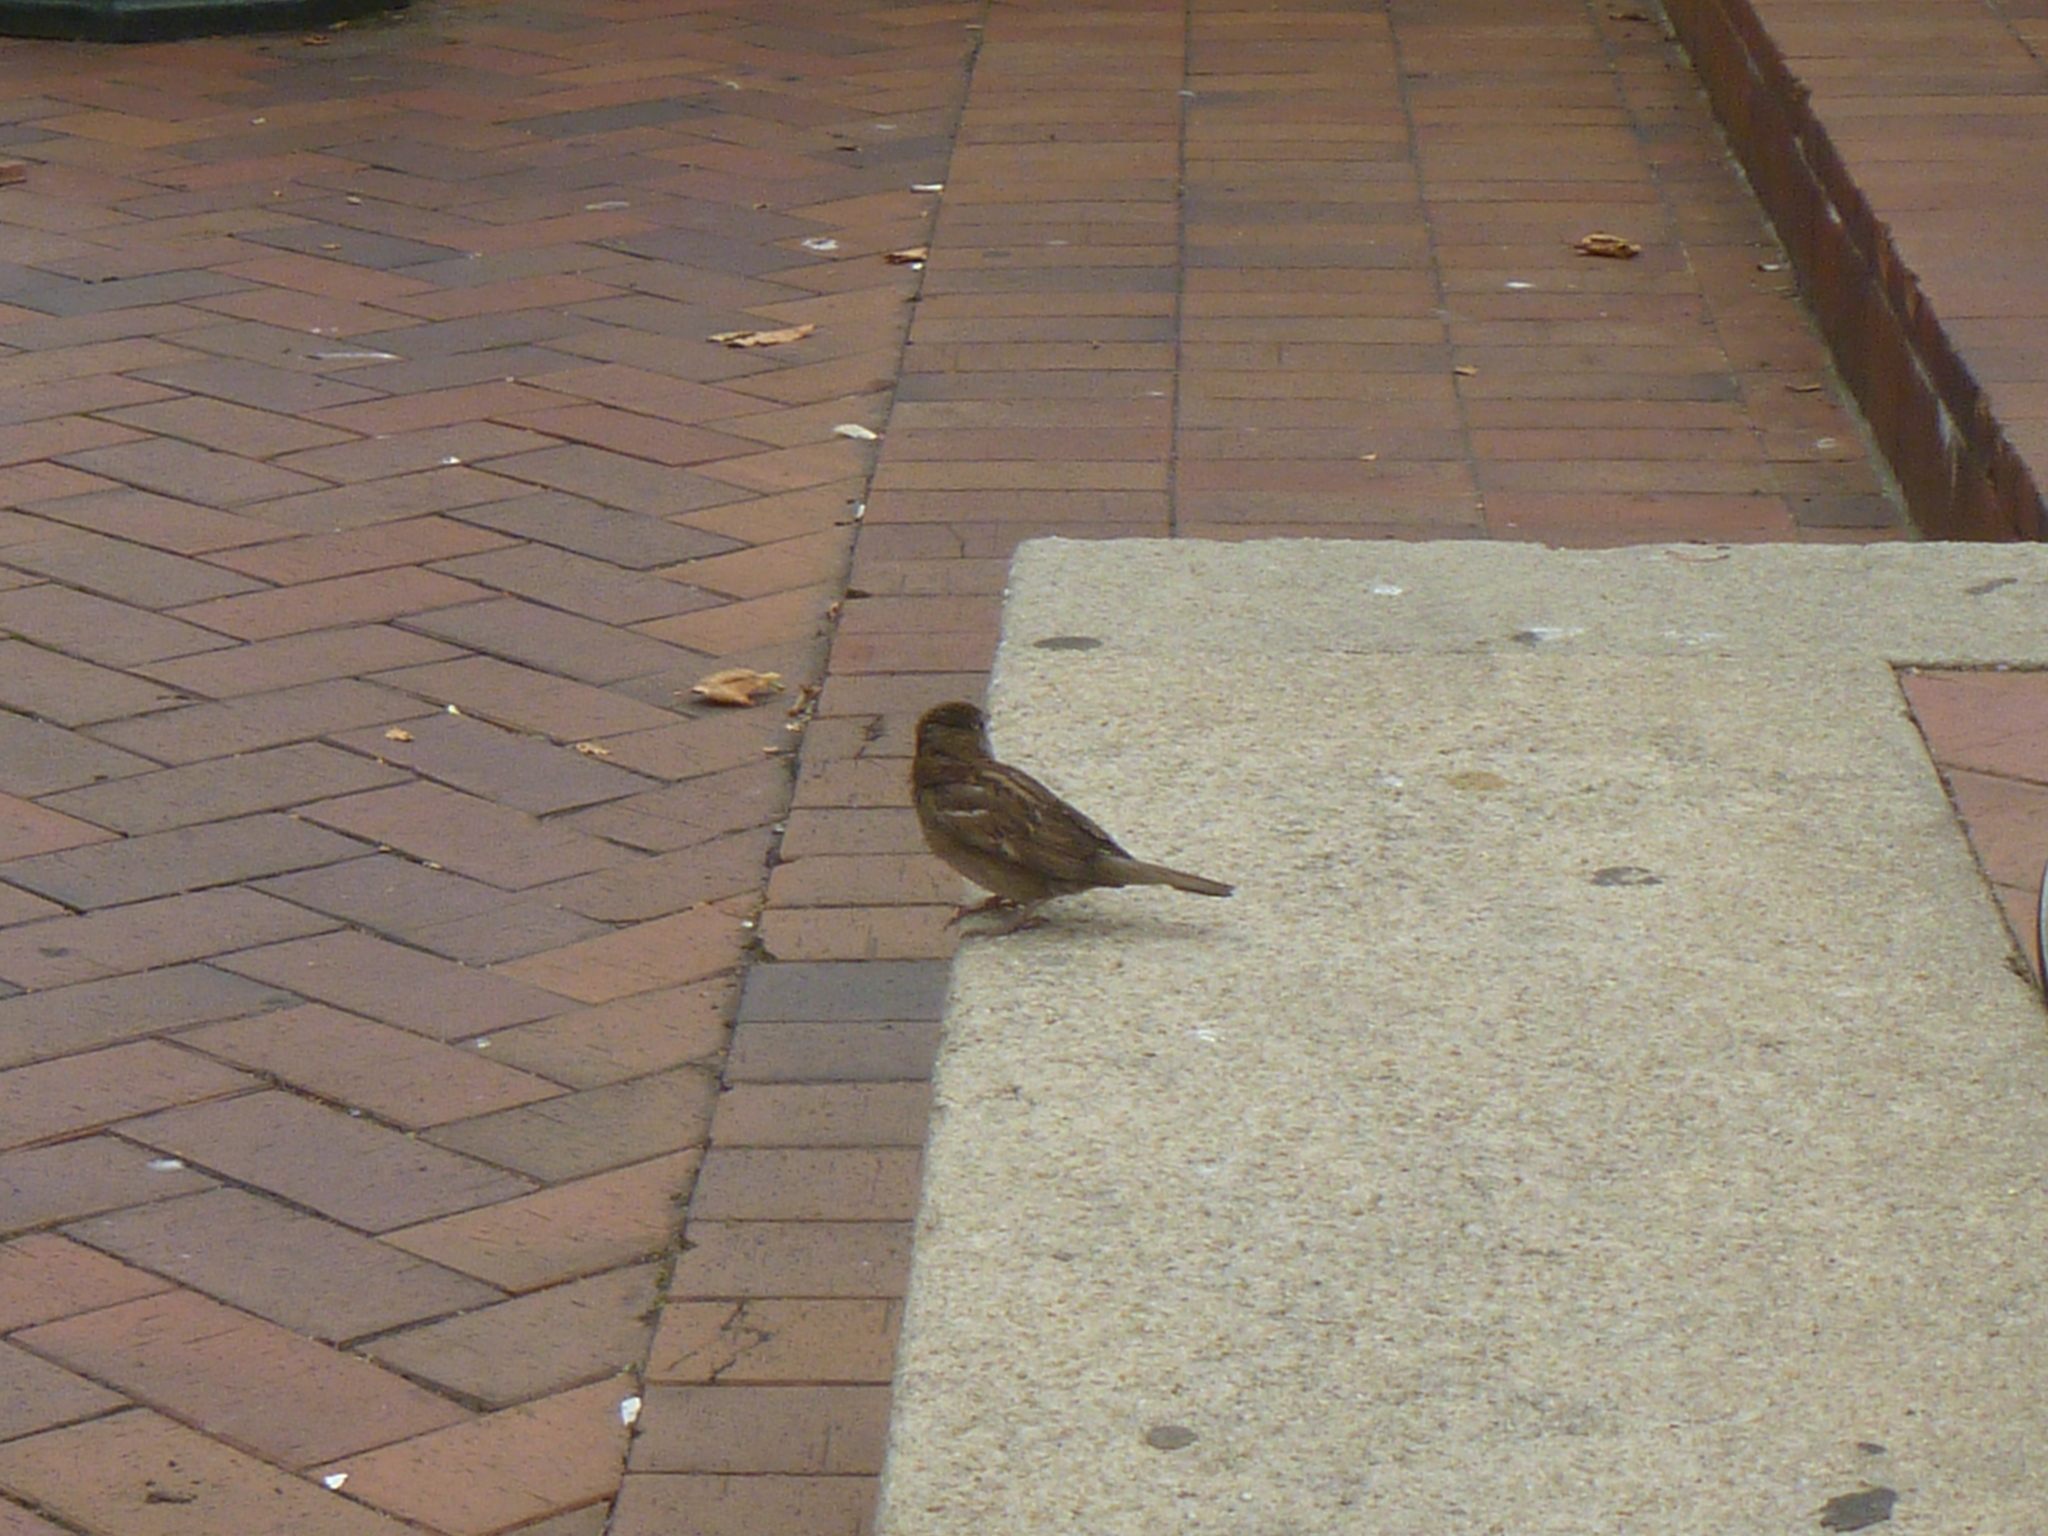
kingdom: Animalia
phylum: Chordata
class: Aves
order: Passeriformes
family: Passeridae
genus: Passer
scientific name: Passer domesticus
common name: House sparrow
